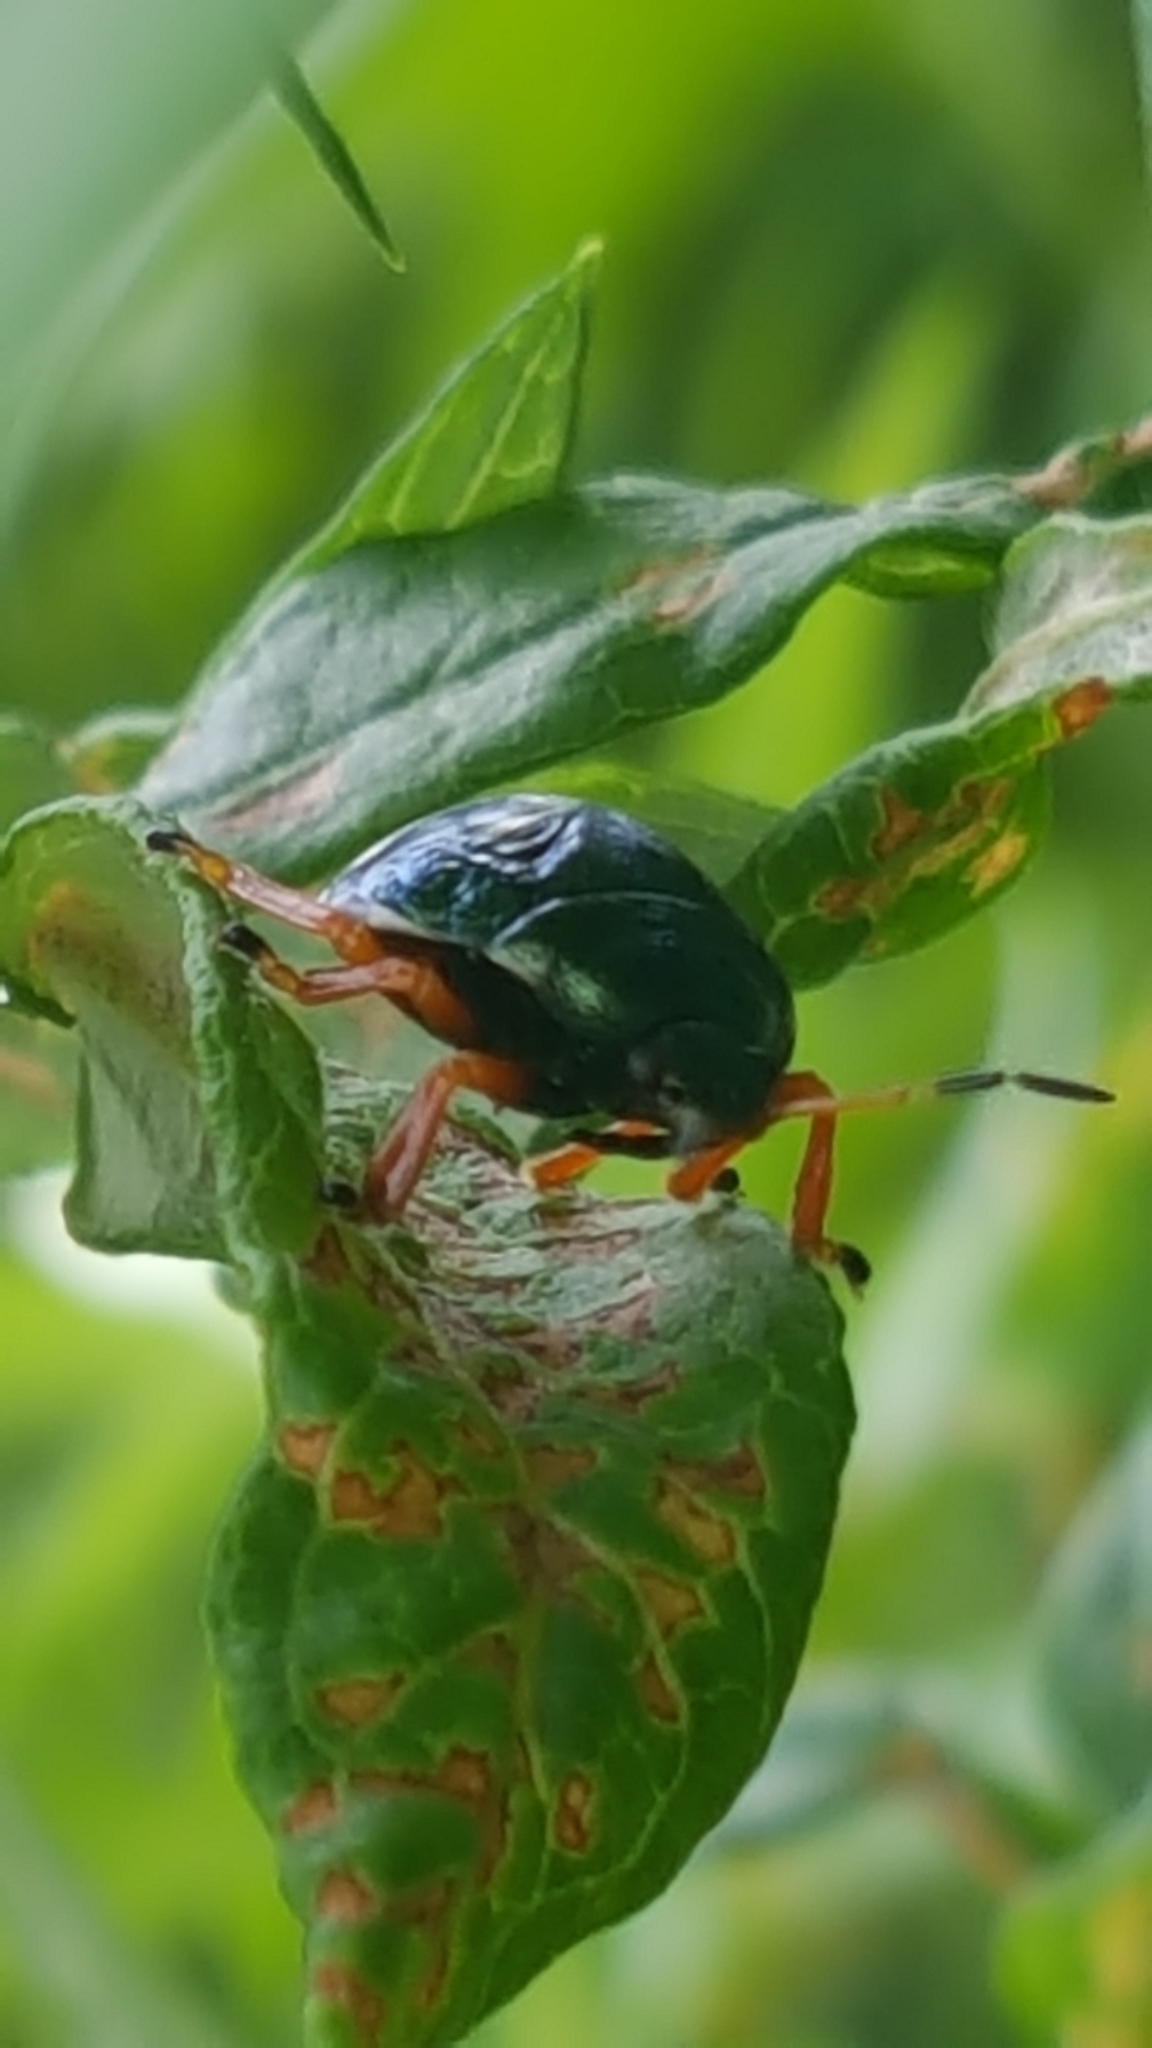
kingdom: Animalia
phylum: Arthropoda
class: Insecta
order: Hemiptera
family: Pentatomidae
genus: Stiretrus
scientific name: Stiretrus anchorago
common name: Anchor stink bug
